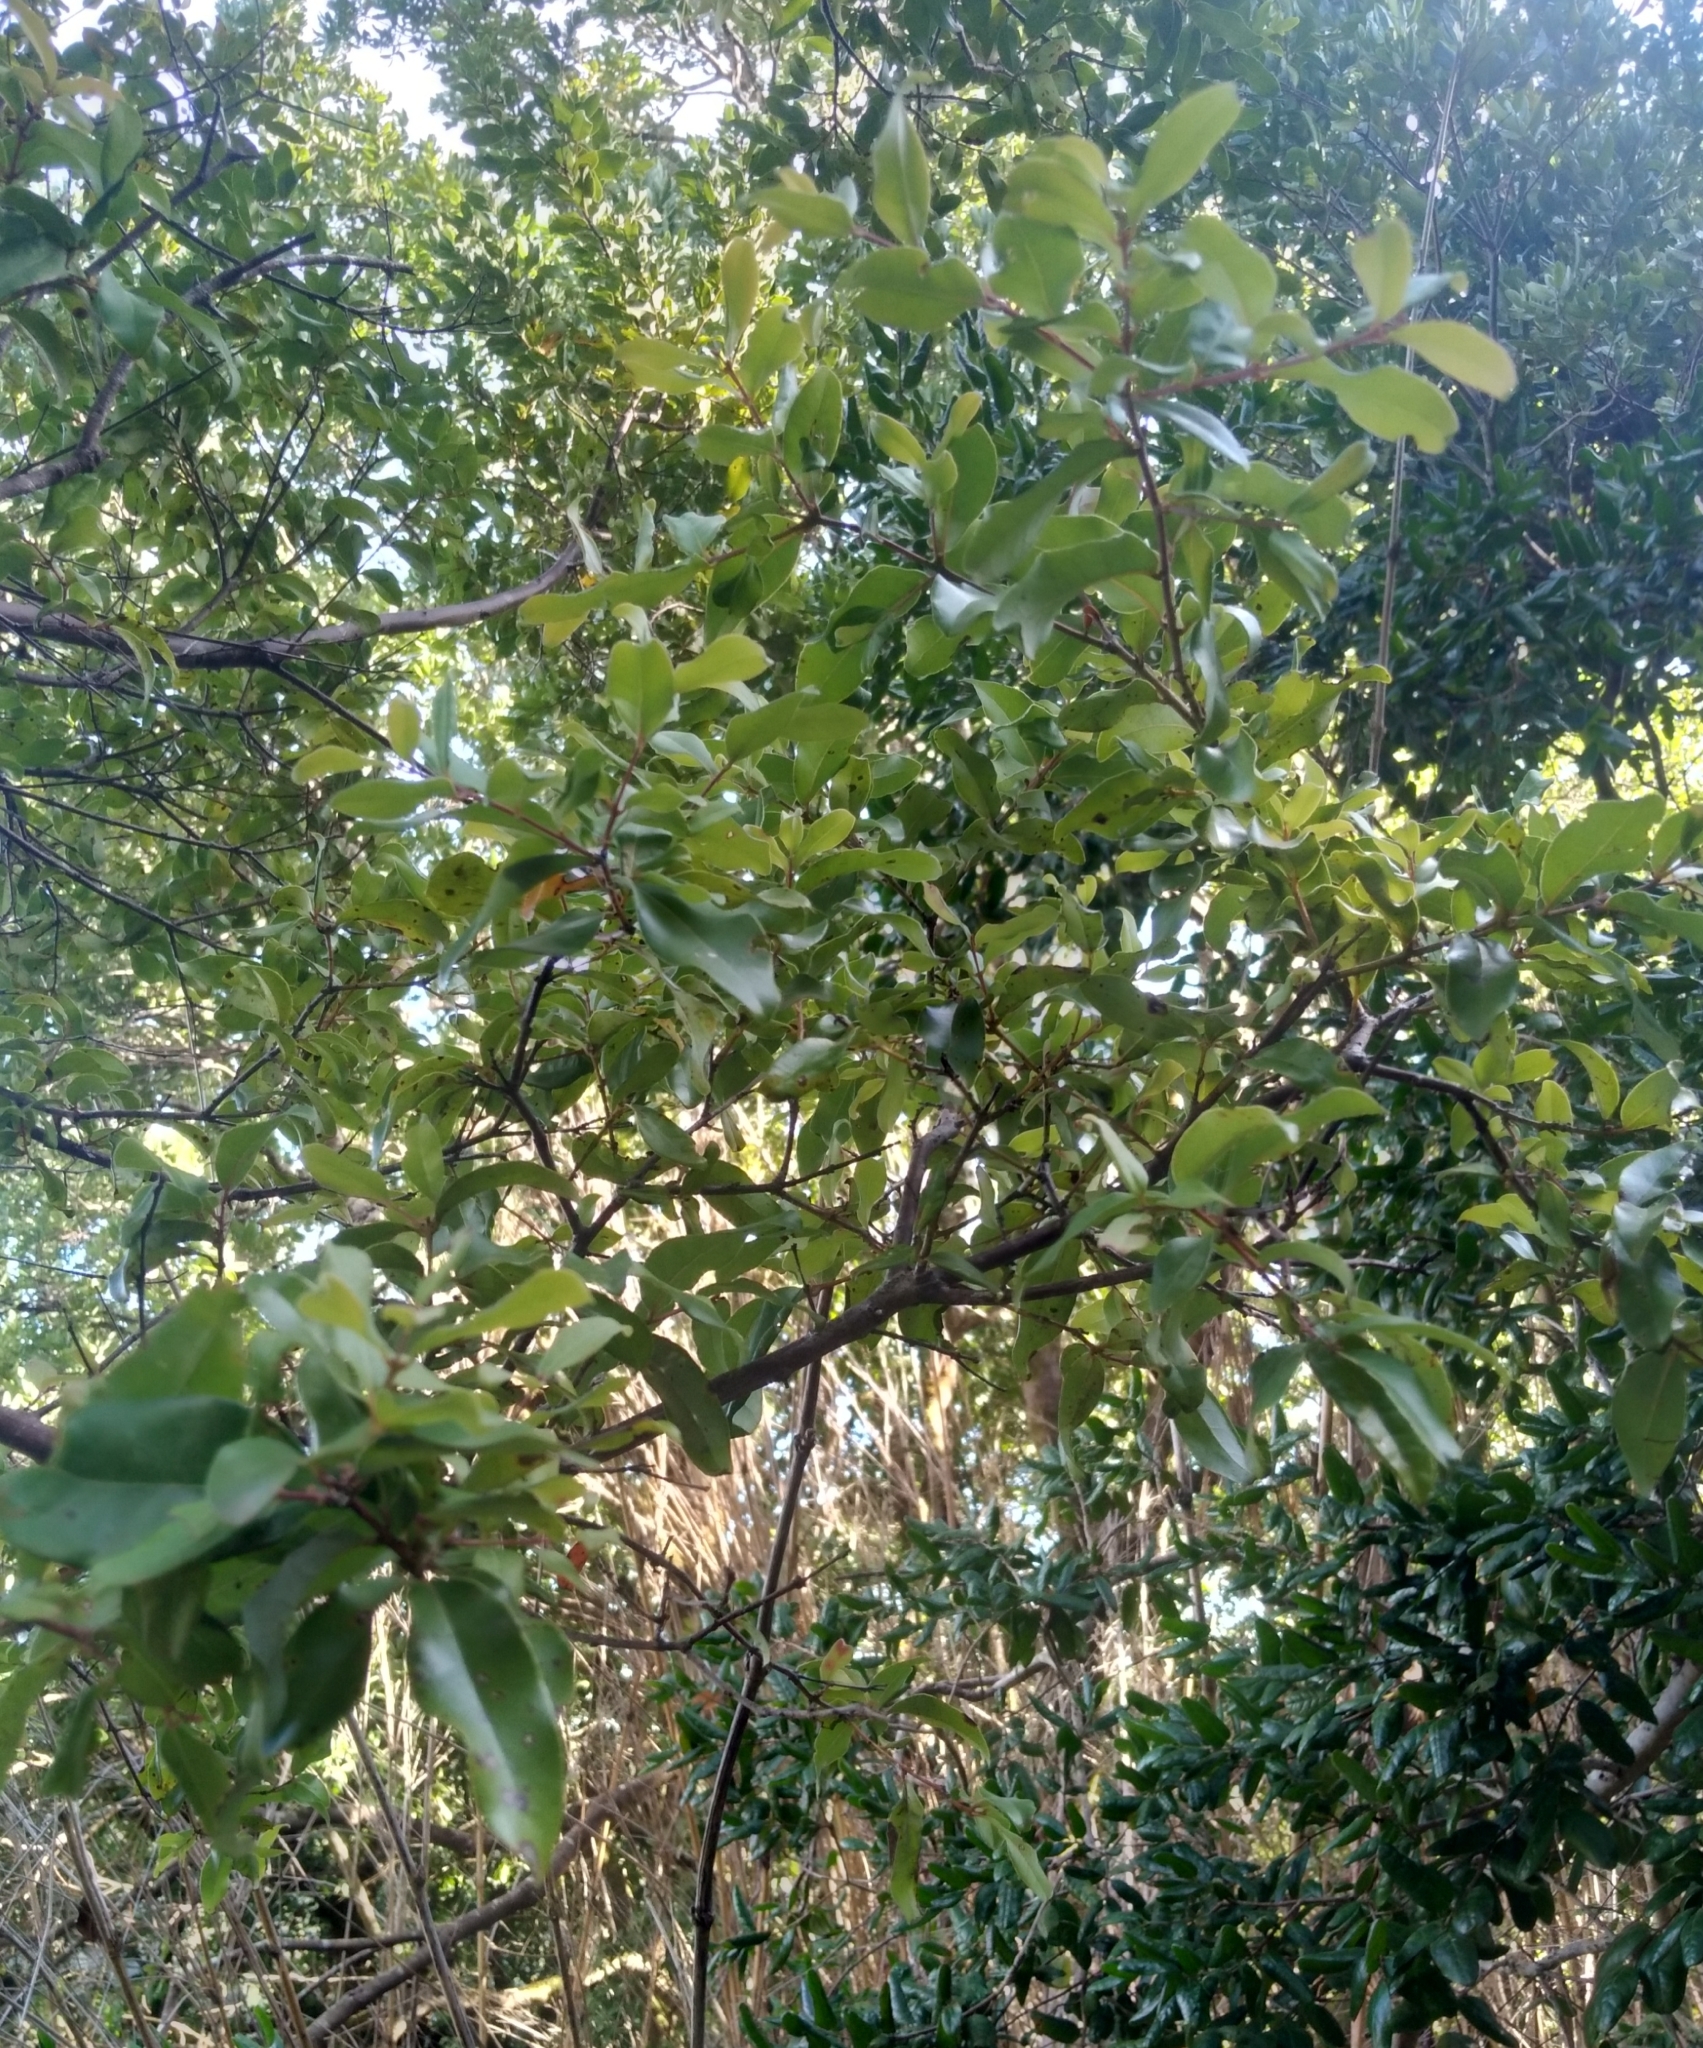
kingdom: Plantae
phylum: Tracheophyta
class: Magnoliopsida
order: Laurales
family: Lauraceae
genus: Cryptocarya
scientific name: Cryptocarya alba
